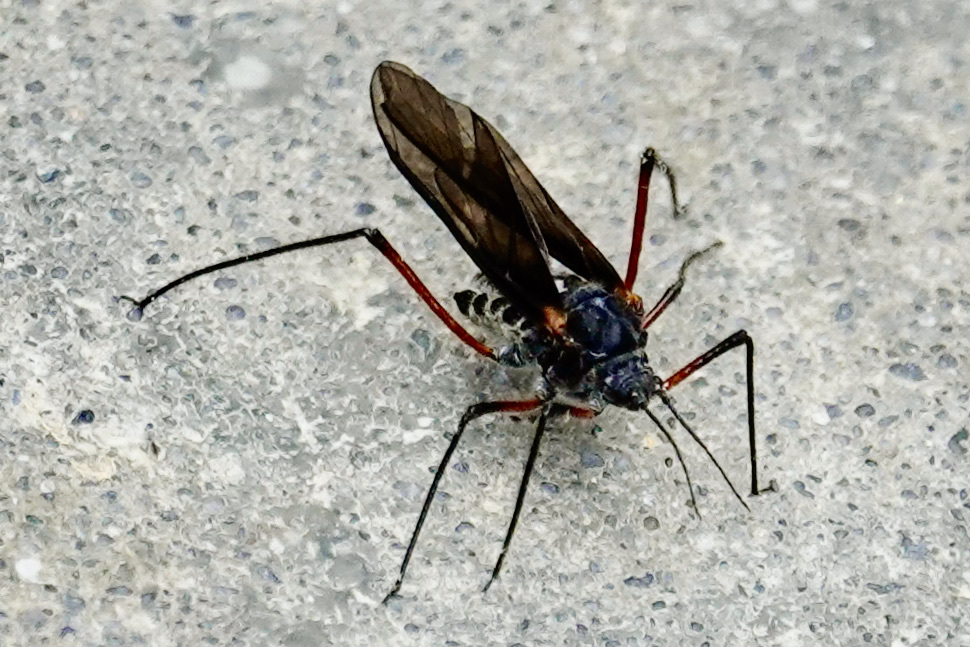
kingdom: Animalia
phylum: Arthropoda
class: Insecta
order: Hemiptera
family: Aphididae
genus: Longistigma
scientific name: Longistigma caryae
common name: Giant bark aphid
